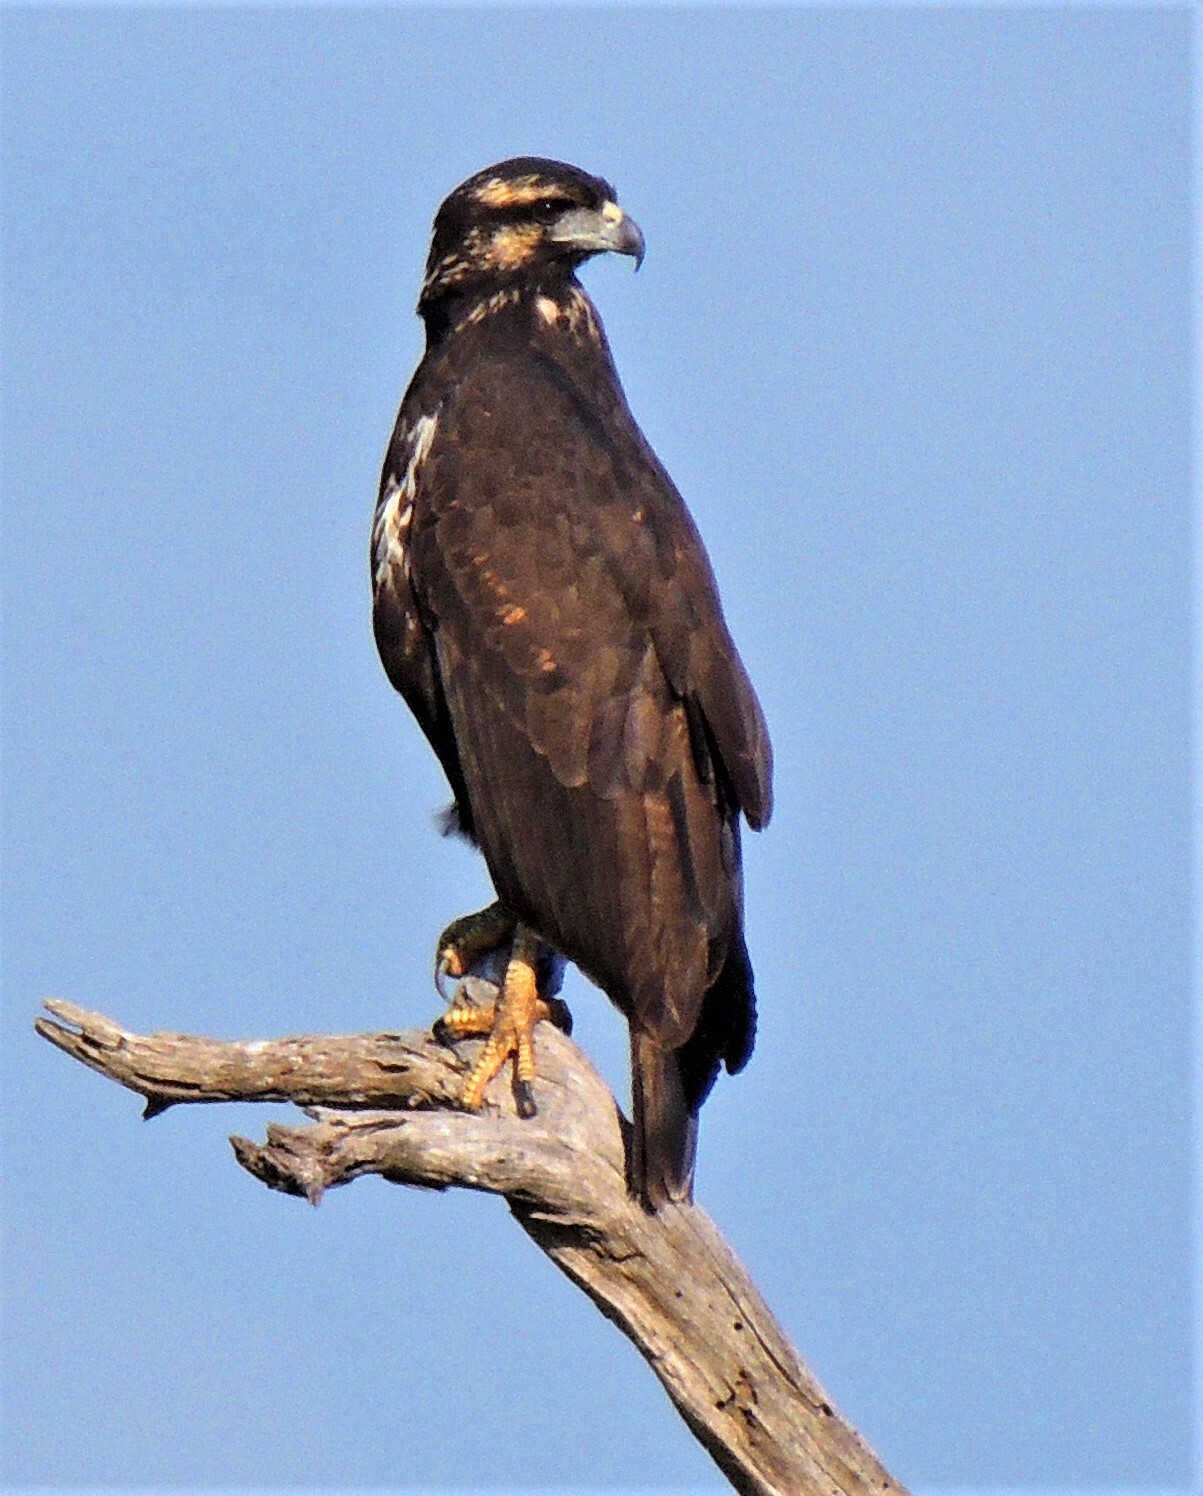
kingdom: Animalia
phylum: Chordata
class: Aves
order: Accipitriformes
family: Accipitridae
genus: Buteogallus
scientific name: Buteogallus urubitinga
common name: Great black hawk
